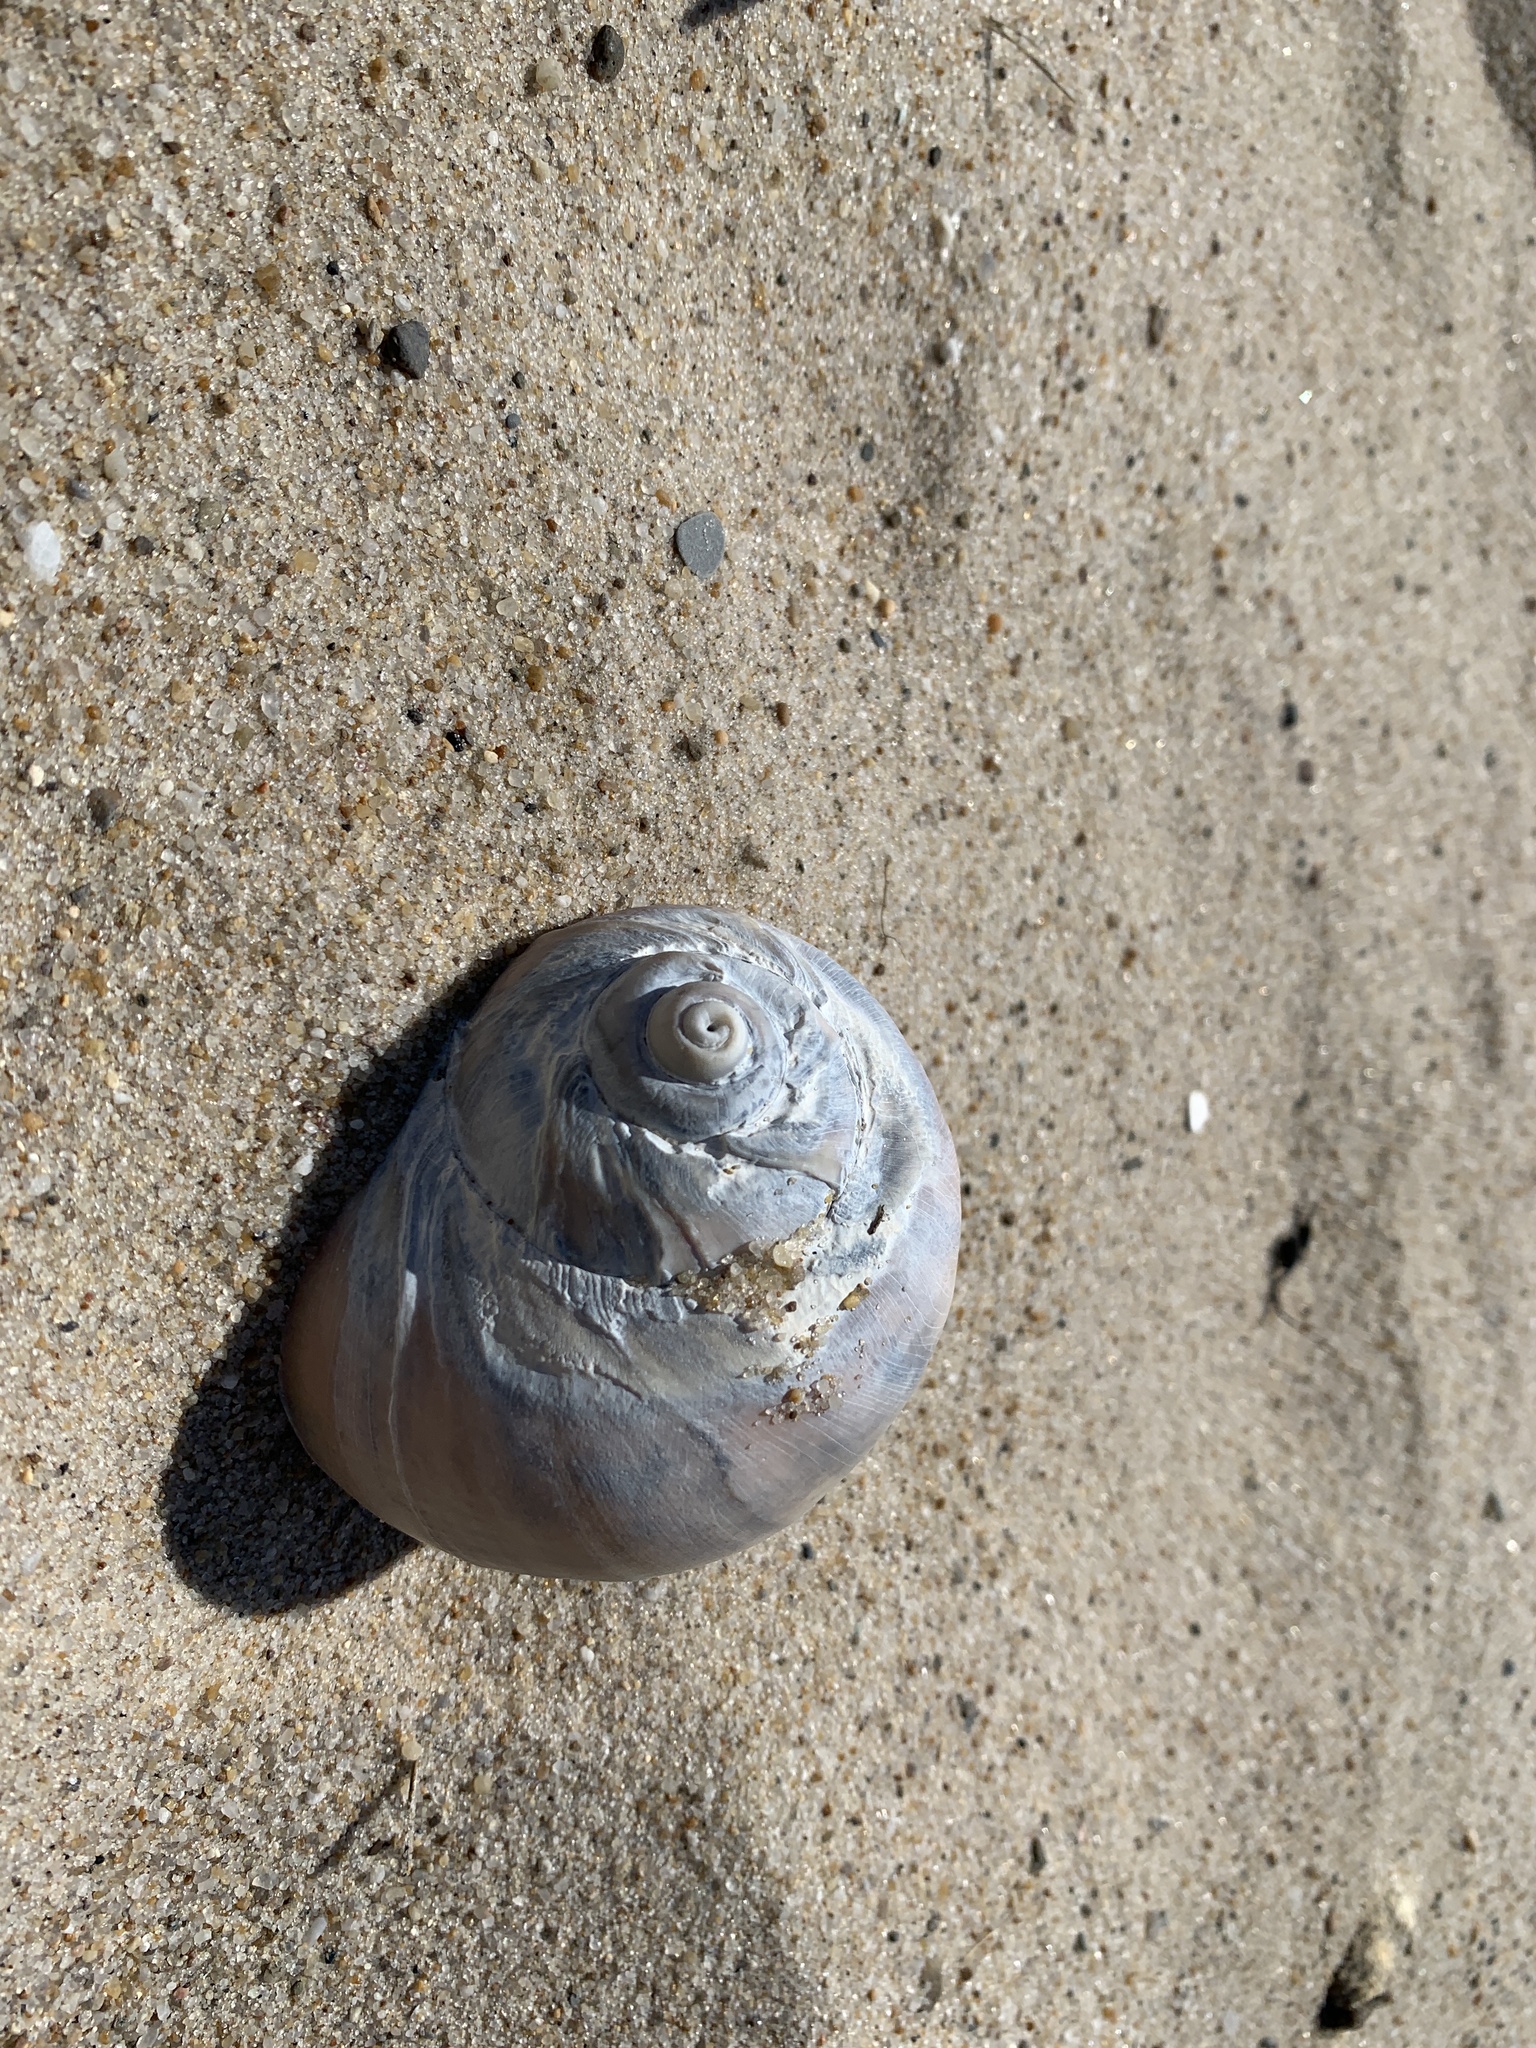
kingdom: Animalia
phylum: Mollusca
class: Gastropoda
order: Littorinimorpha
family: Naticidae
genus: Euspira
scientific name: Euspira heros
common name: Common northern moonsnail
